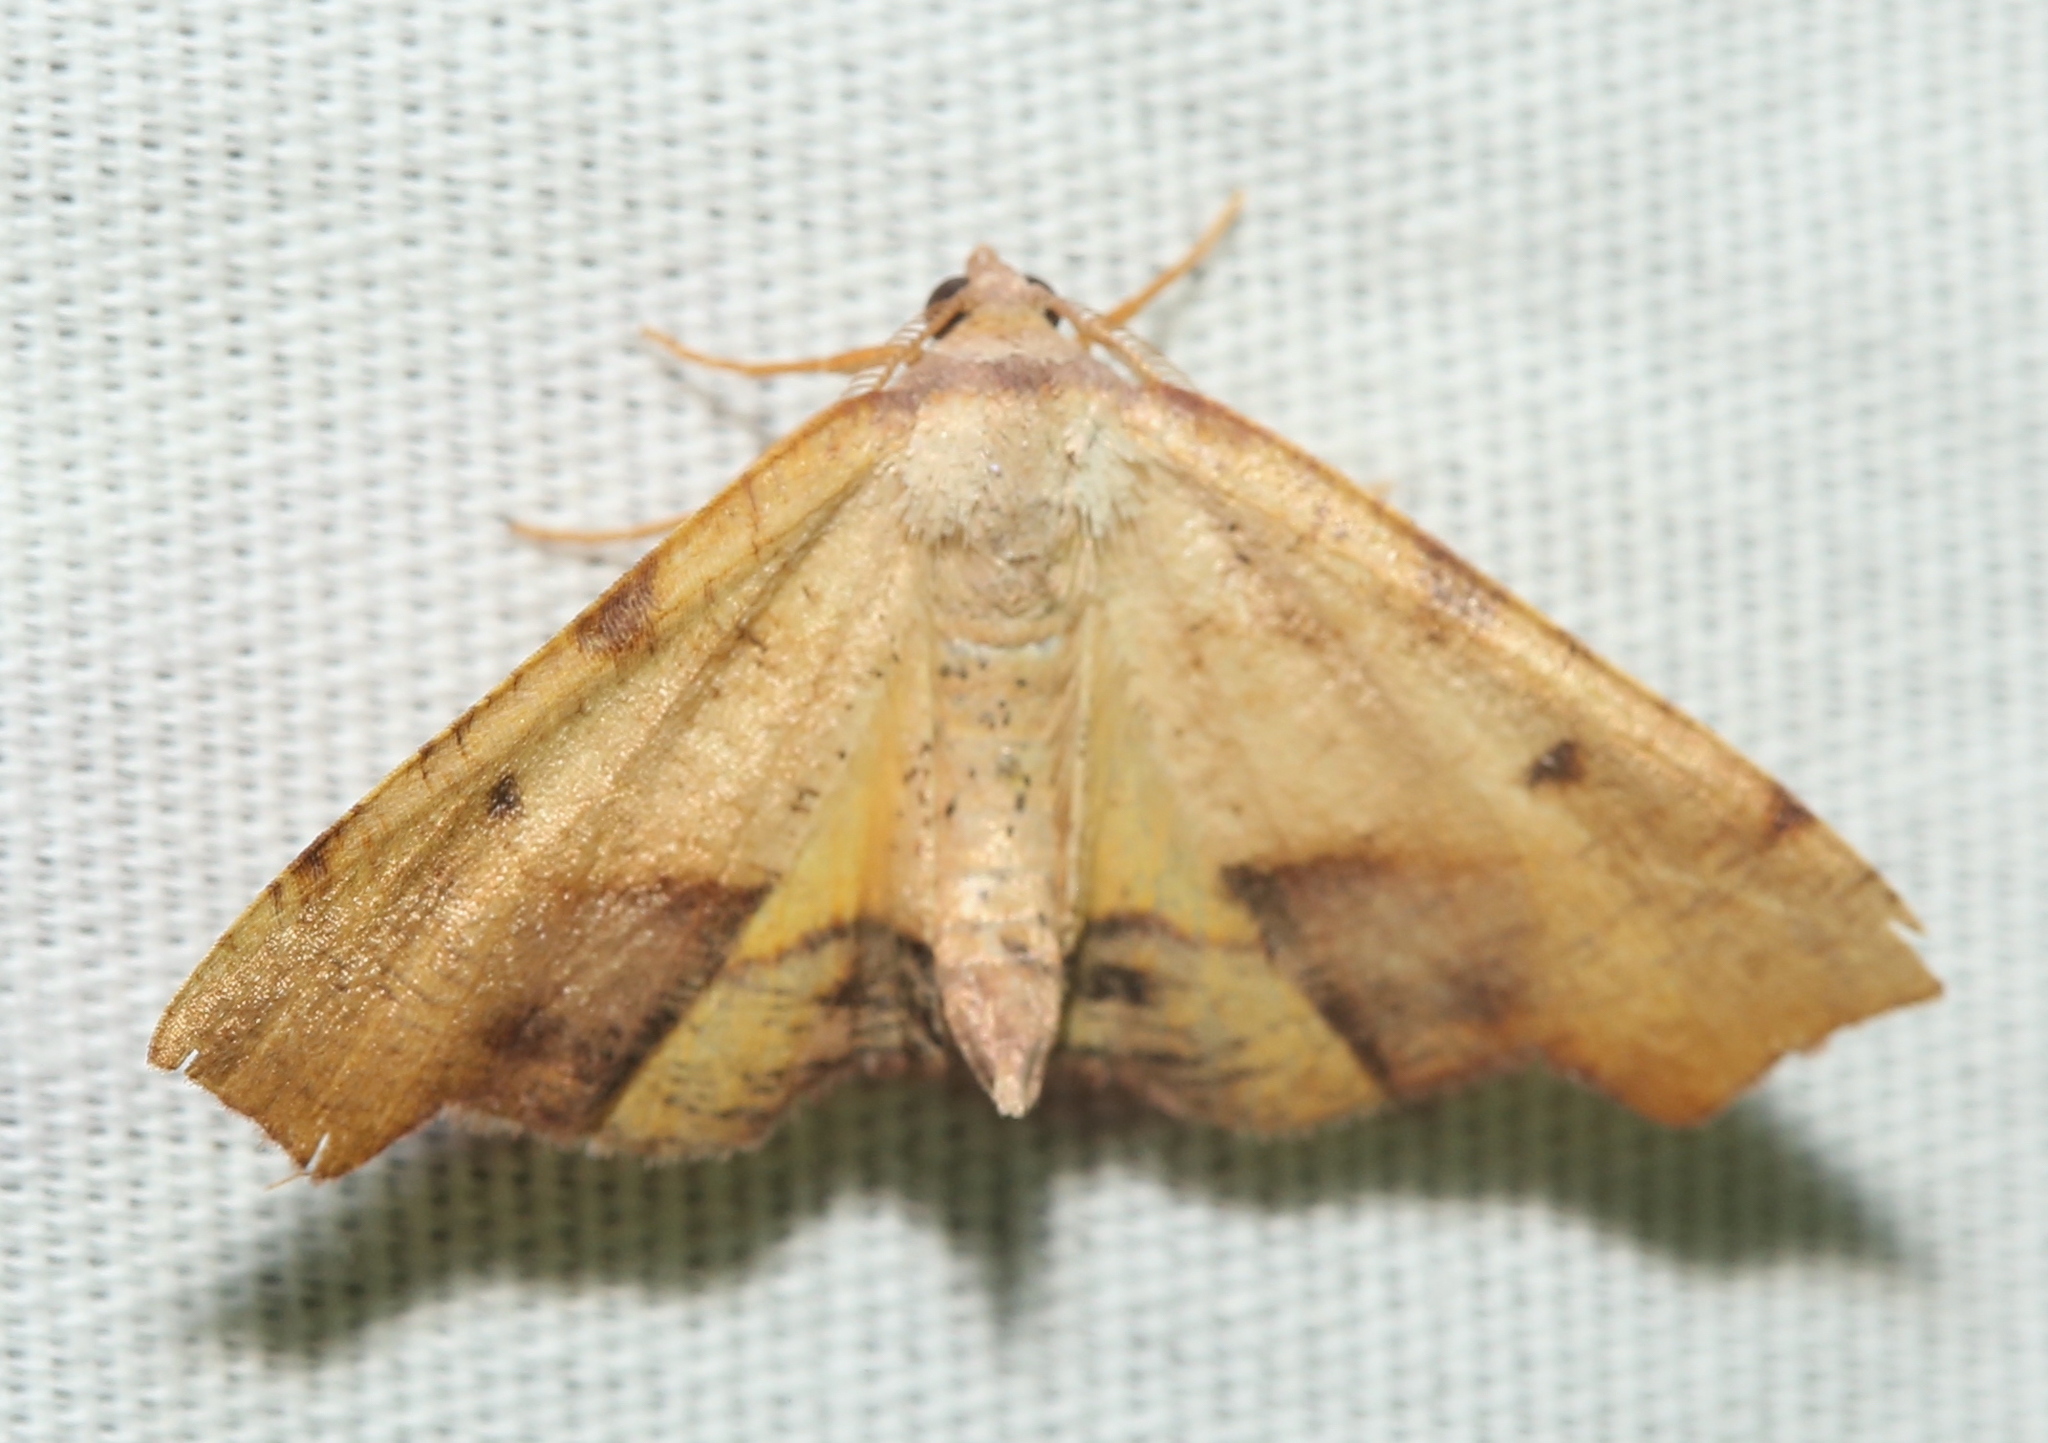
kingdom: Animalia
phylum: Arthropoda
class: Insecta
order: Lepidoptera
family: Geometridae
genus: Plagodis
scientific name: Plagodis fervidaria
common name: Fervid plagodis
